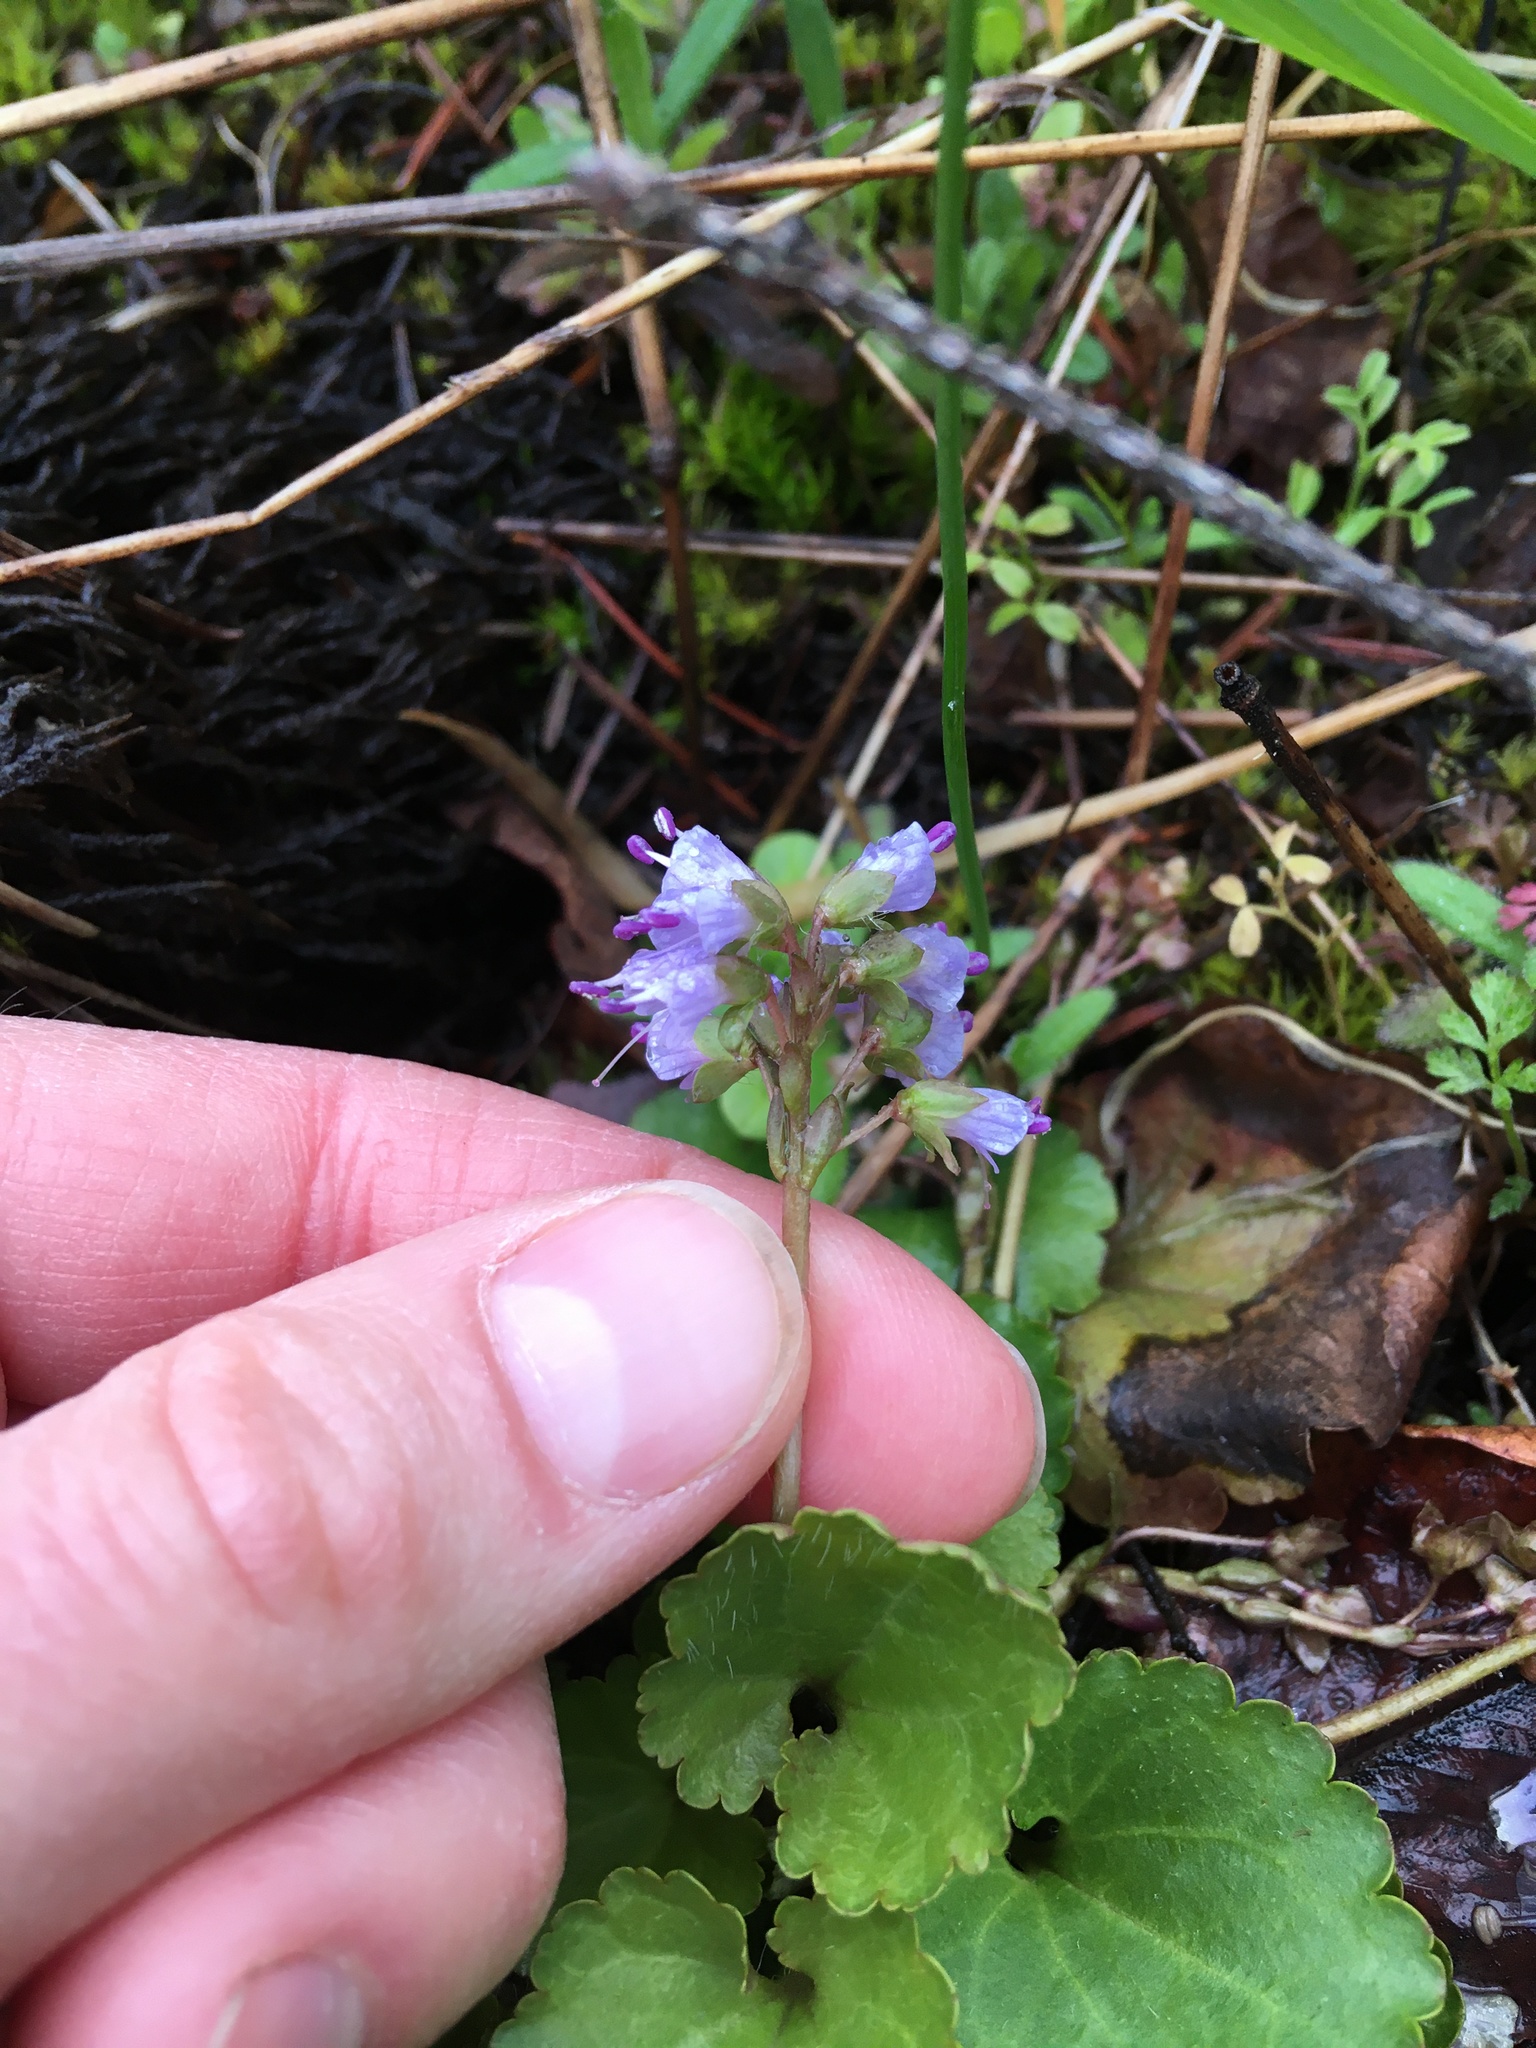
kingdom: Plantae
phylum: Tracheophyta
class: Magnoliopsida
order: Lamiales
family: Plantaginaceae
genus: Synthyris
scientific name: Synthyris reniformis
